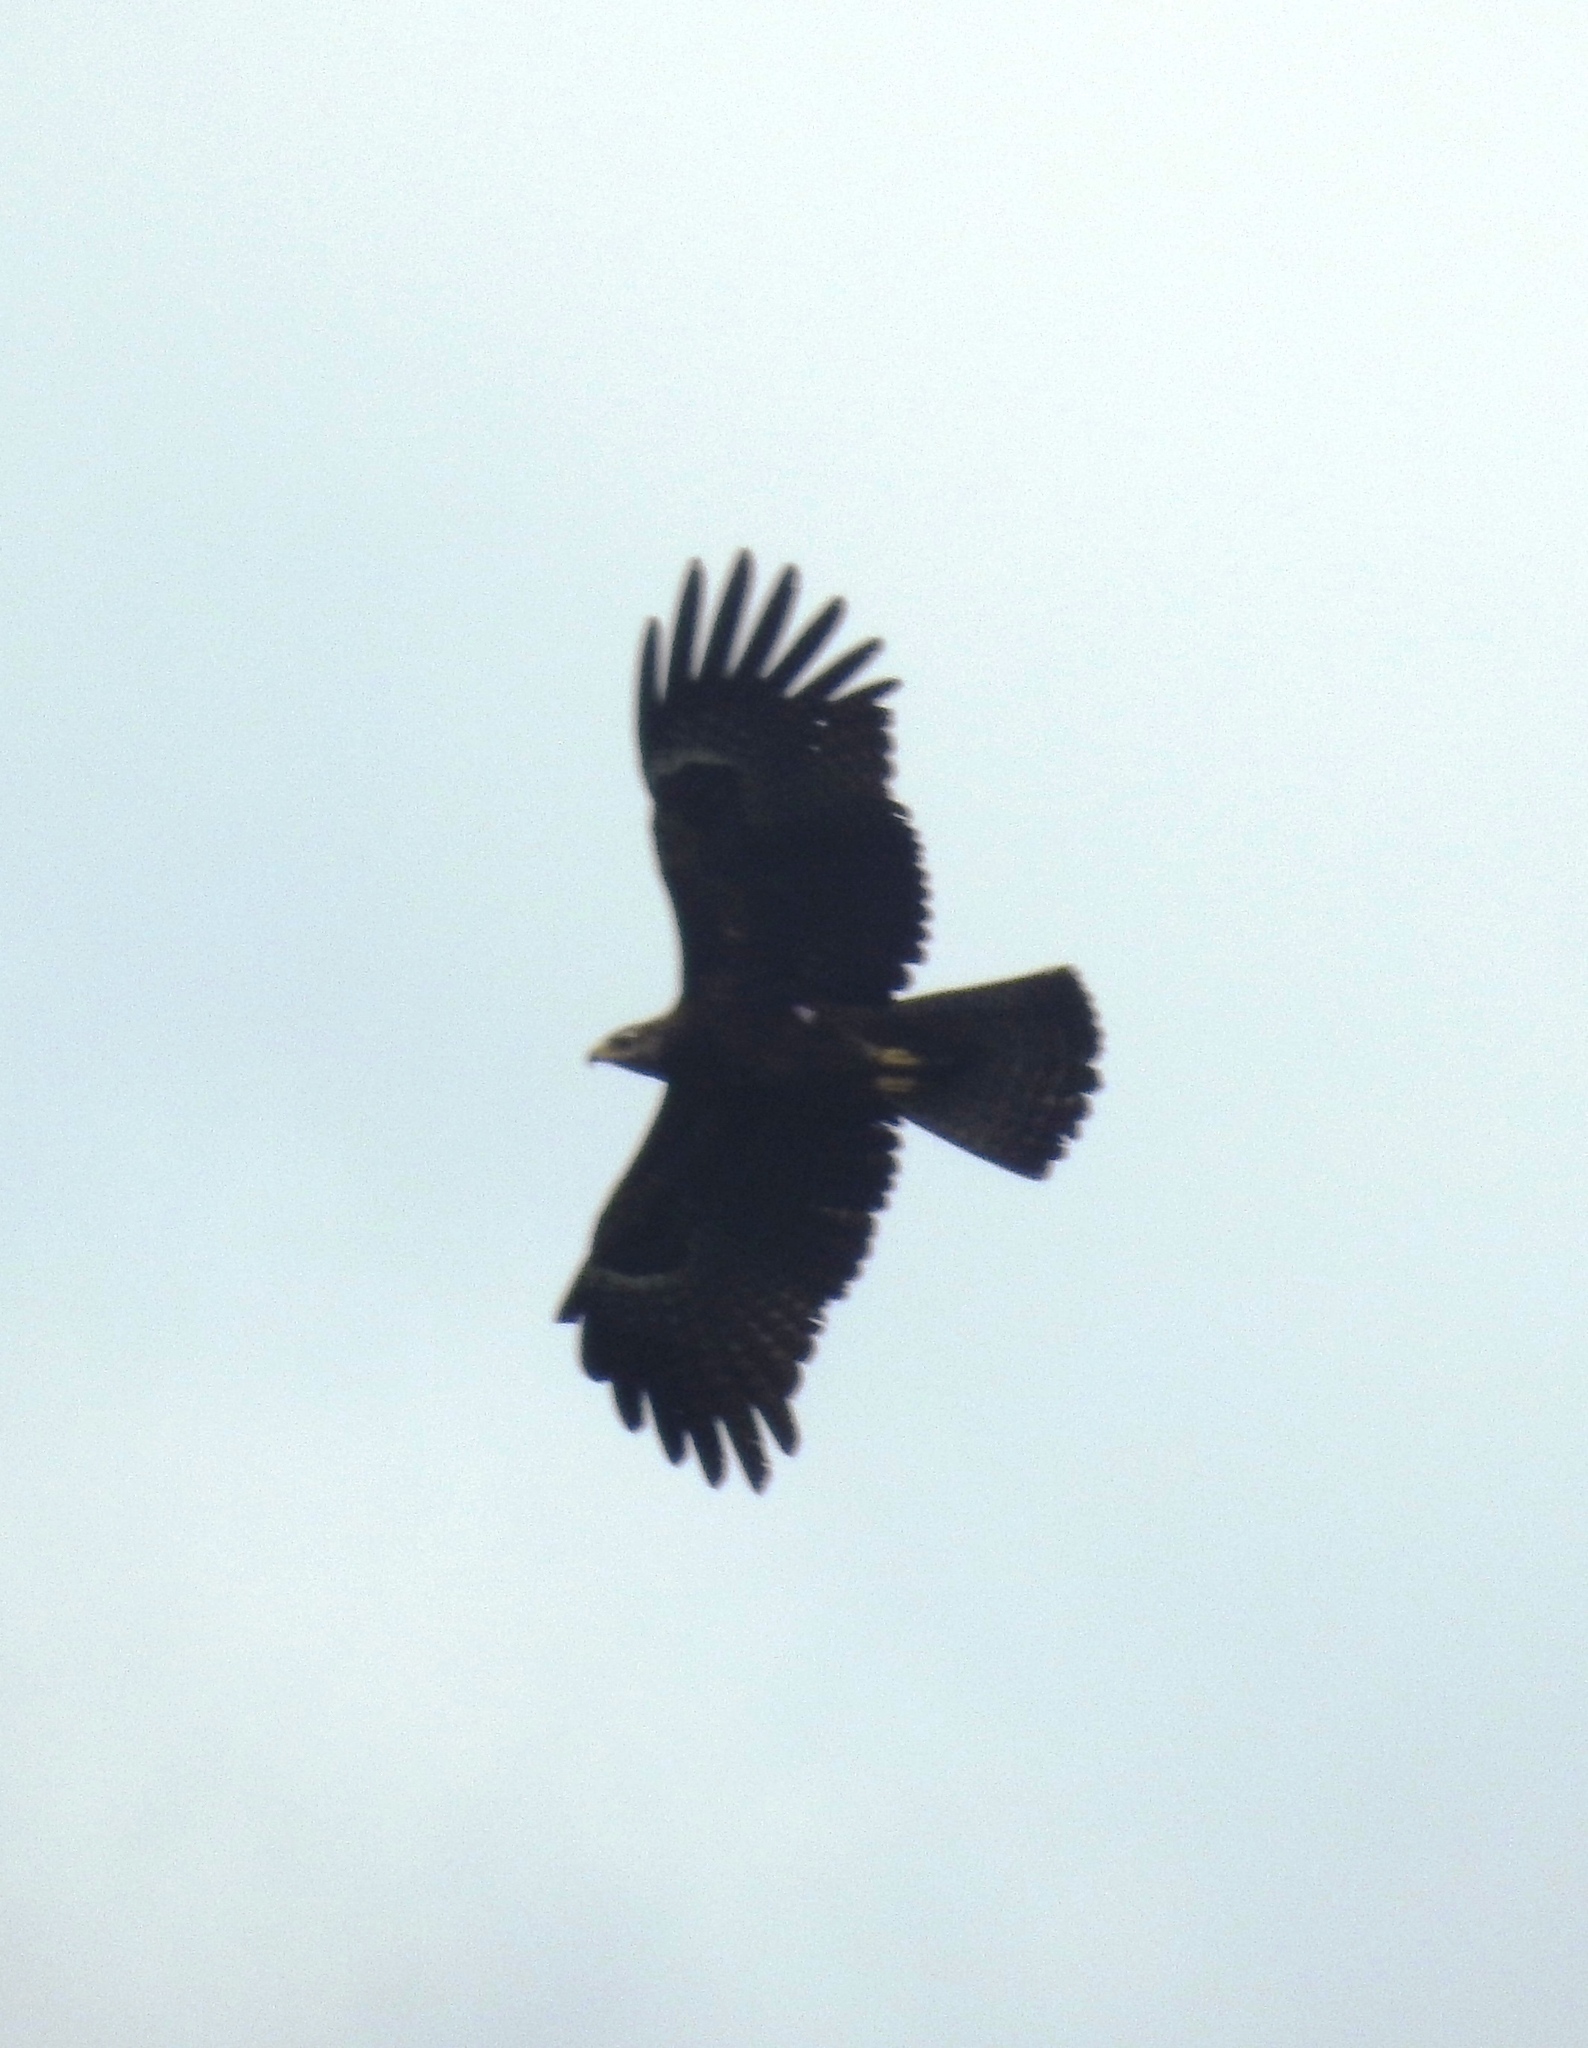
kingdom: Animalia
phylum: Chordata
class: Aves
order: Accipitriformes
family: Accipitridae
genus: Ictinaetus
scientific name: Ictinaetus malayensis
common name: Black eagle
